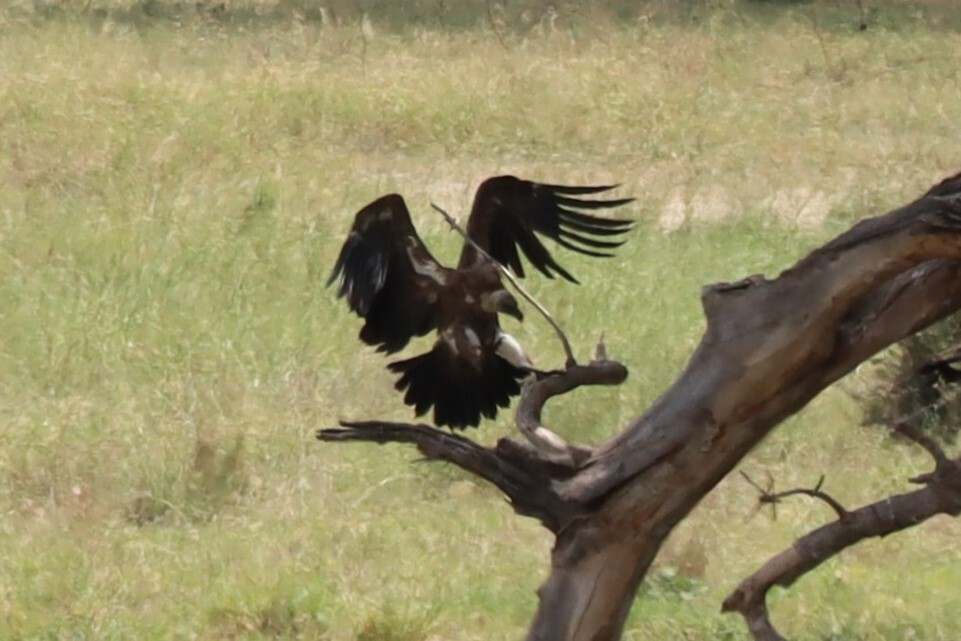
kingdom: Animalia
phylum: Chordata
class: Aves
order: Accipitriformes
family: Accipitridae
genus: Gyps
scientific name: Gyps africanus
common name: White-backed vulture
